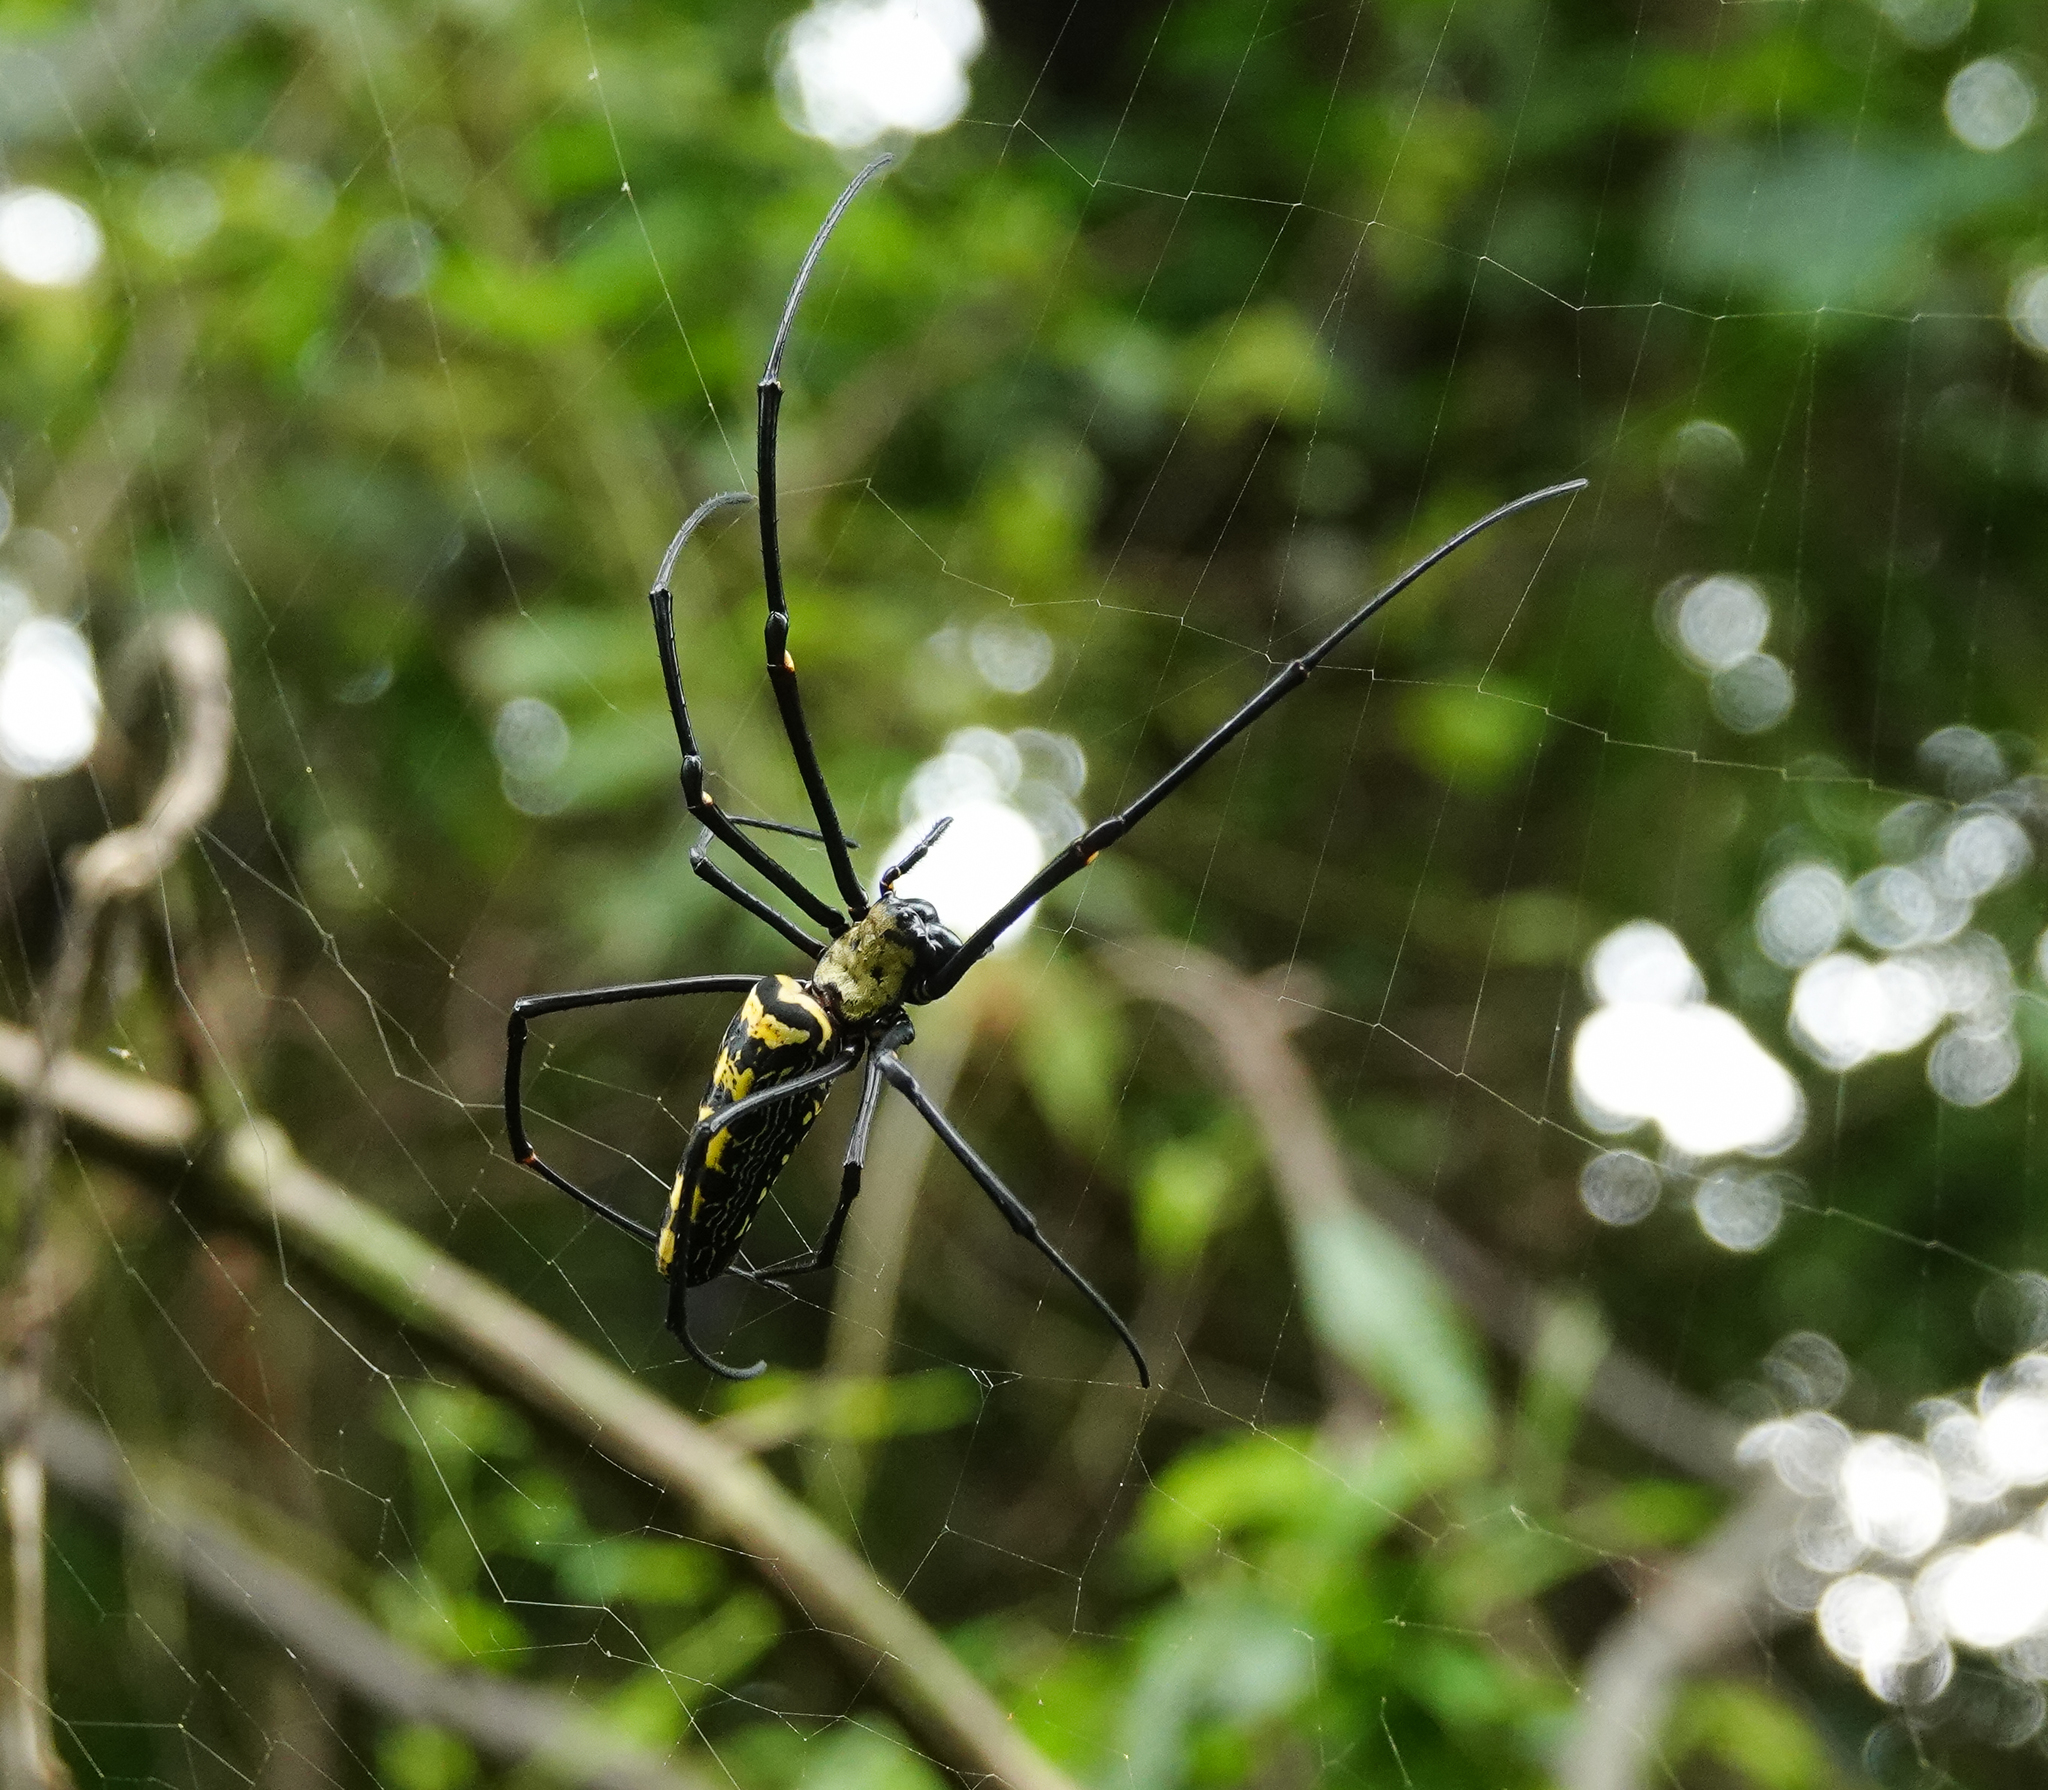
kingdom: Animalia
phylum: Arthropoda
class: Arachnida
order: Araneae
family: Araneidae
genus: Nephila
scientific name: Nephila pilipes
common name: Giant golden orb weaver
